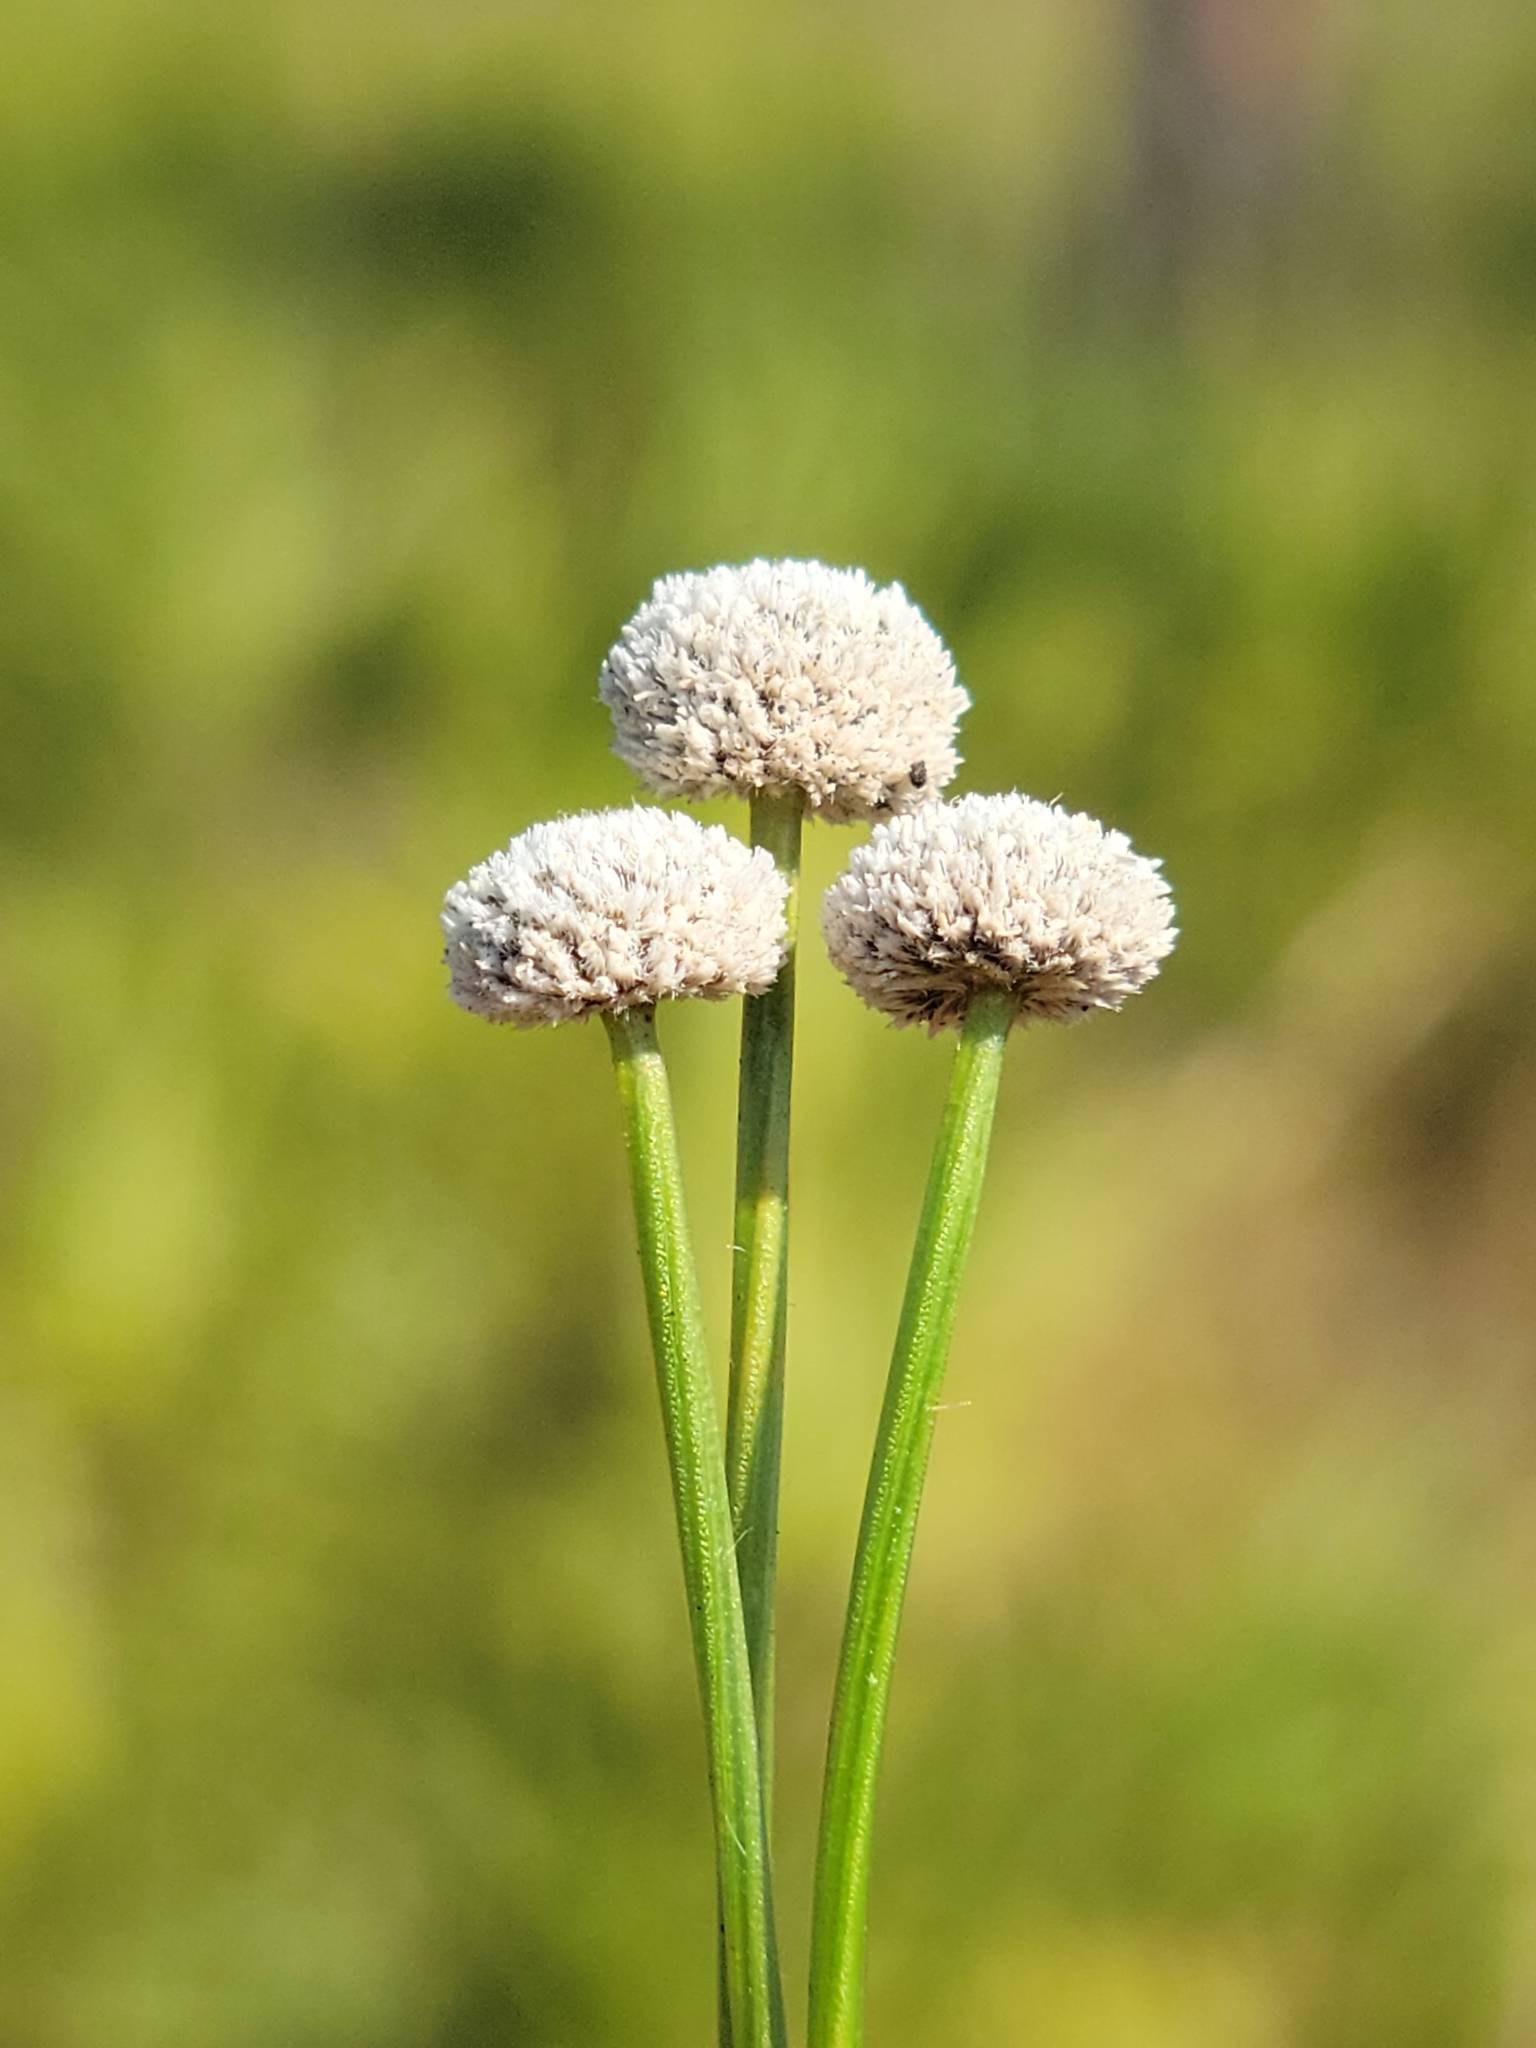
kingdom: Plantae
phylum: Tracheophyta
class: Liliopsida
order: Poales
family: Eriocaulaceae
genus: Paepalanthus
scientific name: Paepalanthus anceps
